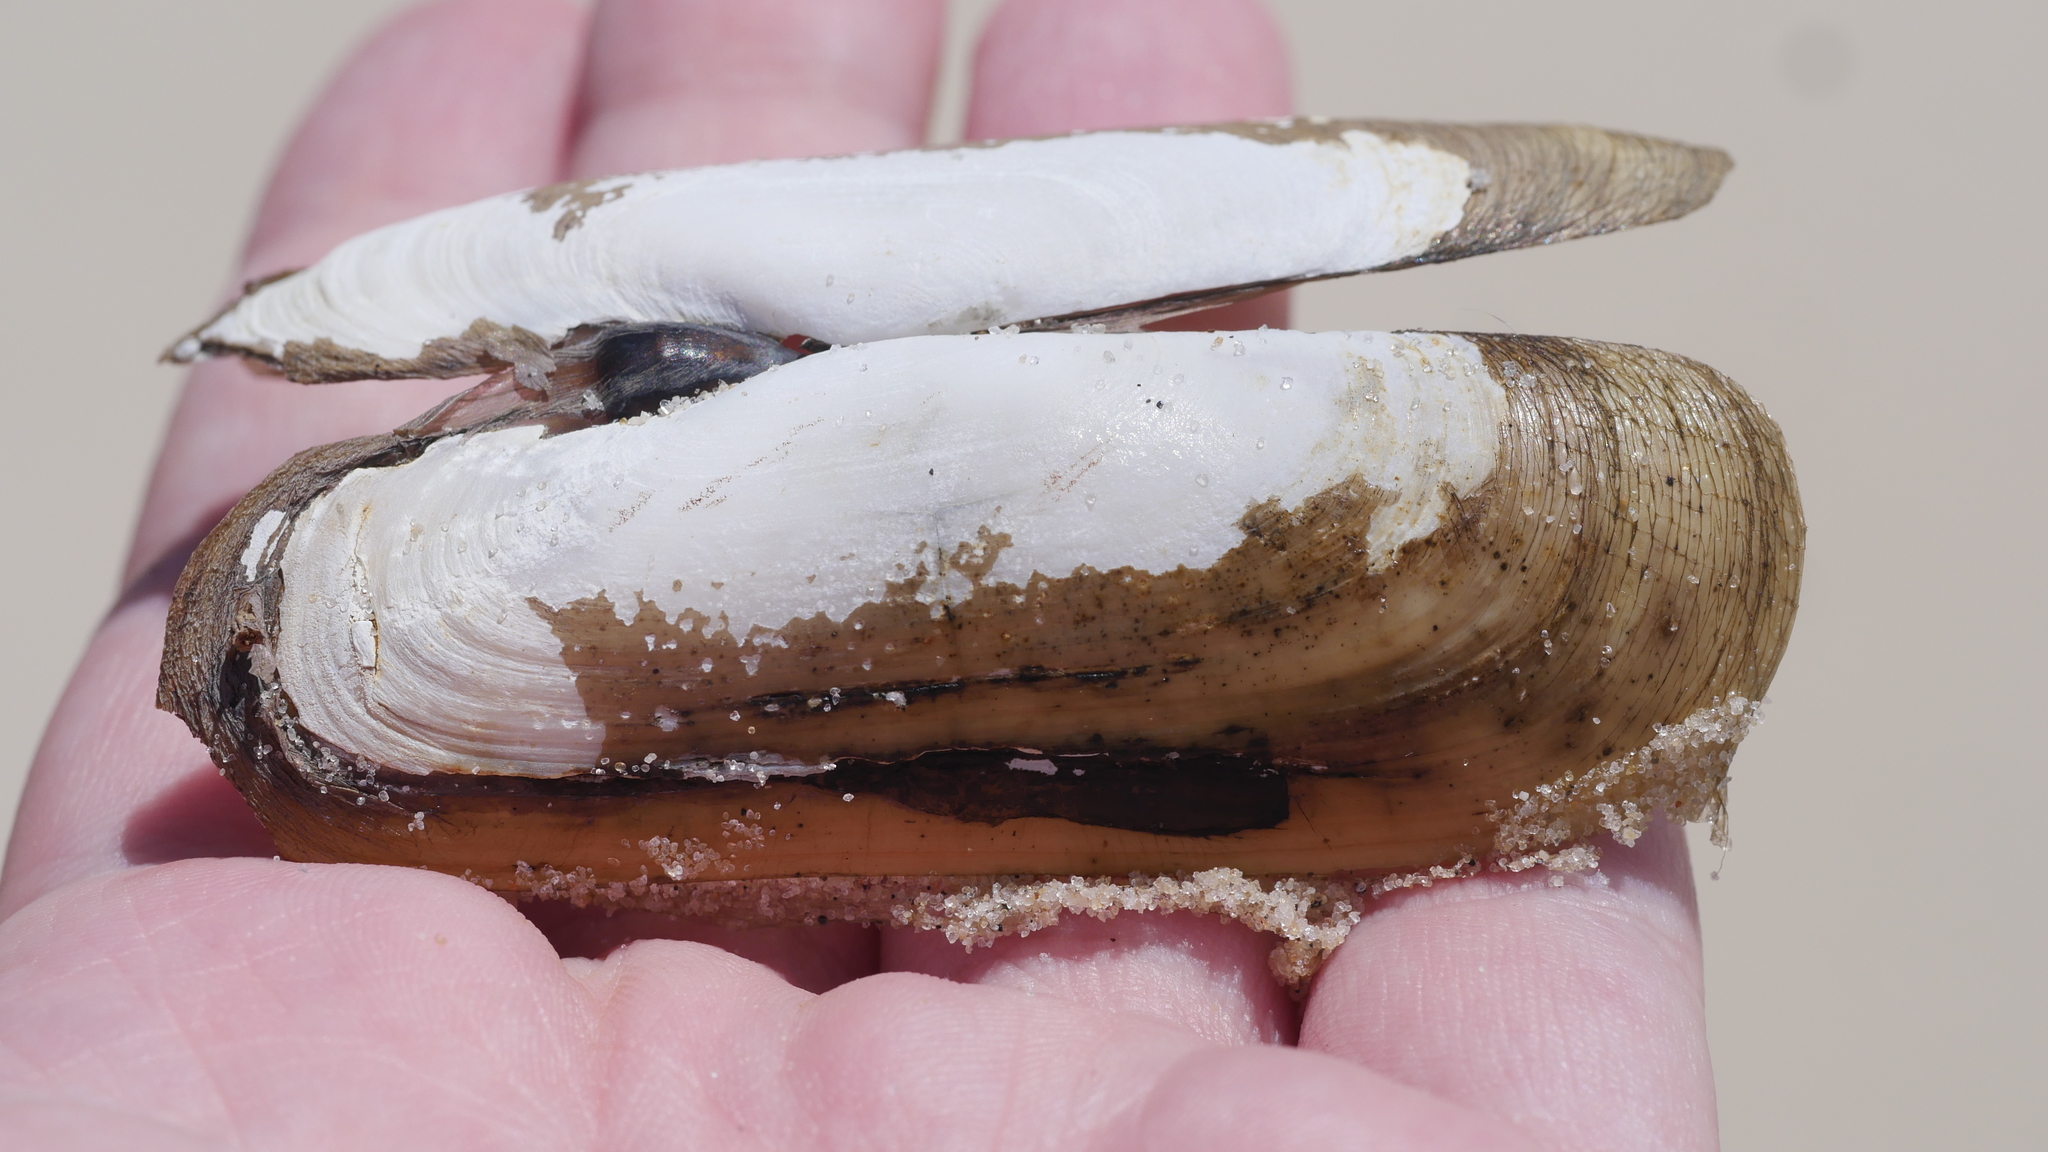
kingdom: Animalia
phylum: Mollusca
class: Bivalvia
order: Cardiida
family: Solecurtidae
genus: Tagelus
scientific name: Tagelus plebeius
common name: Stout tagelus
